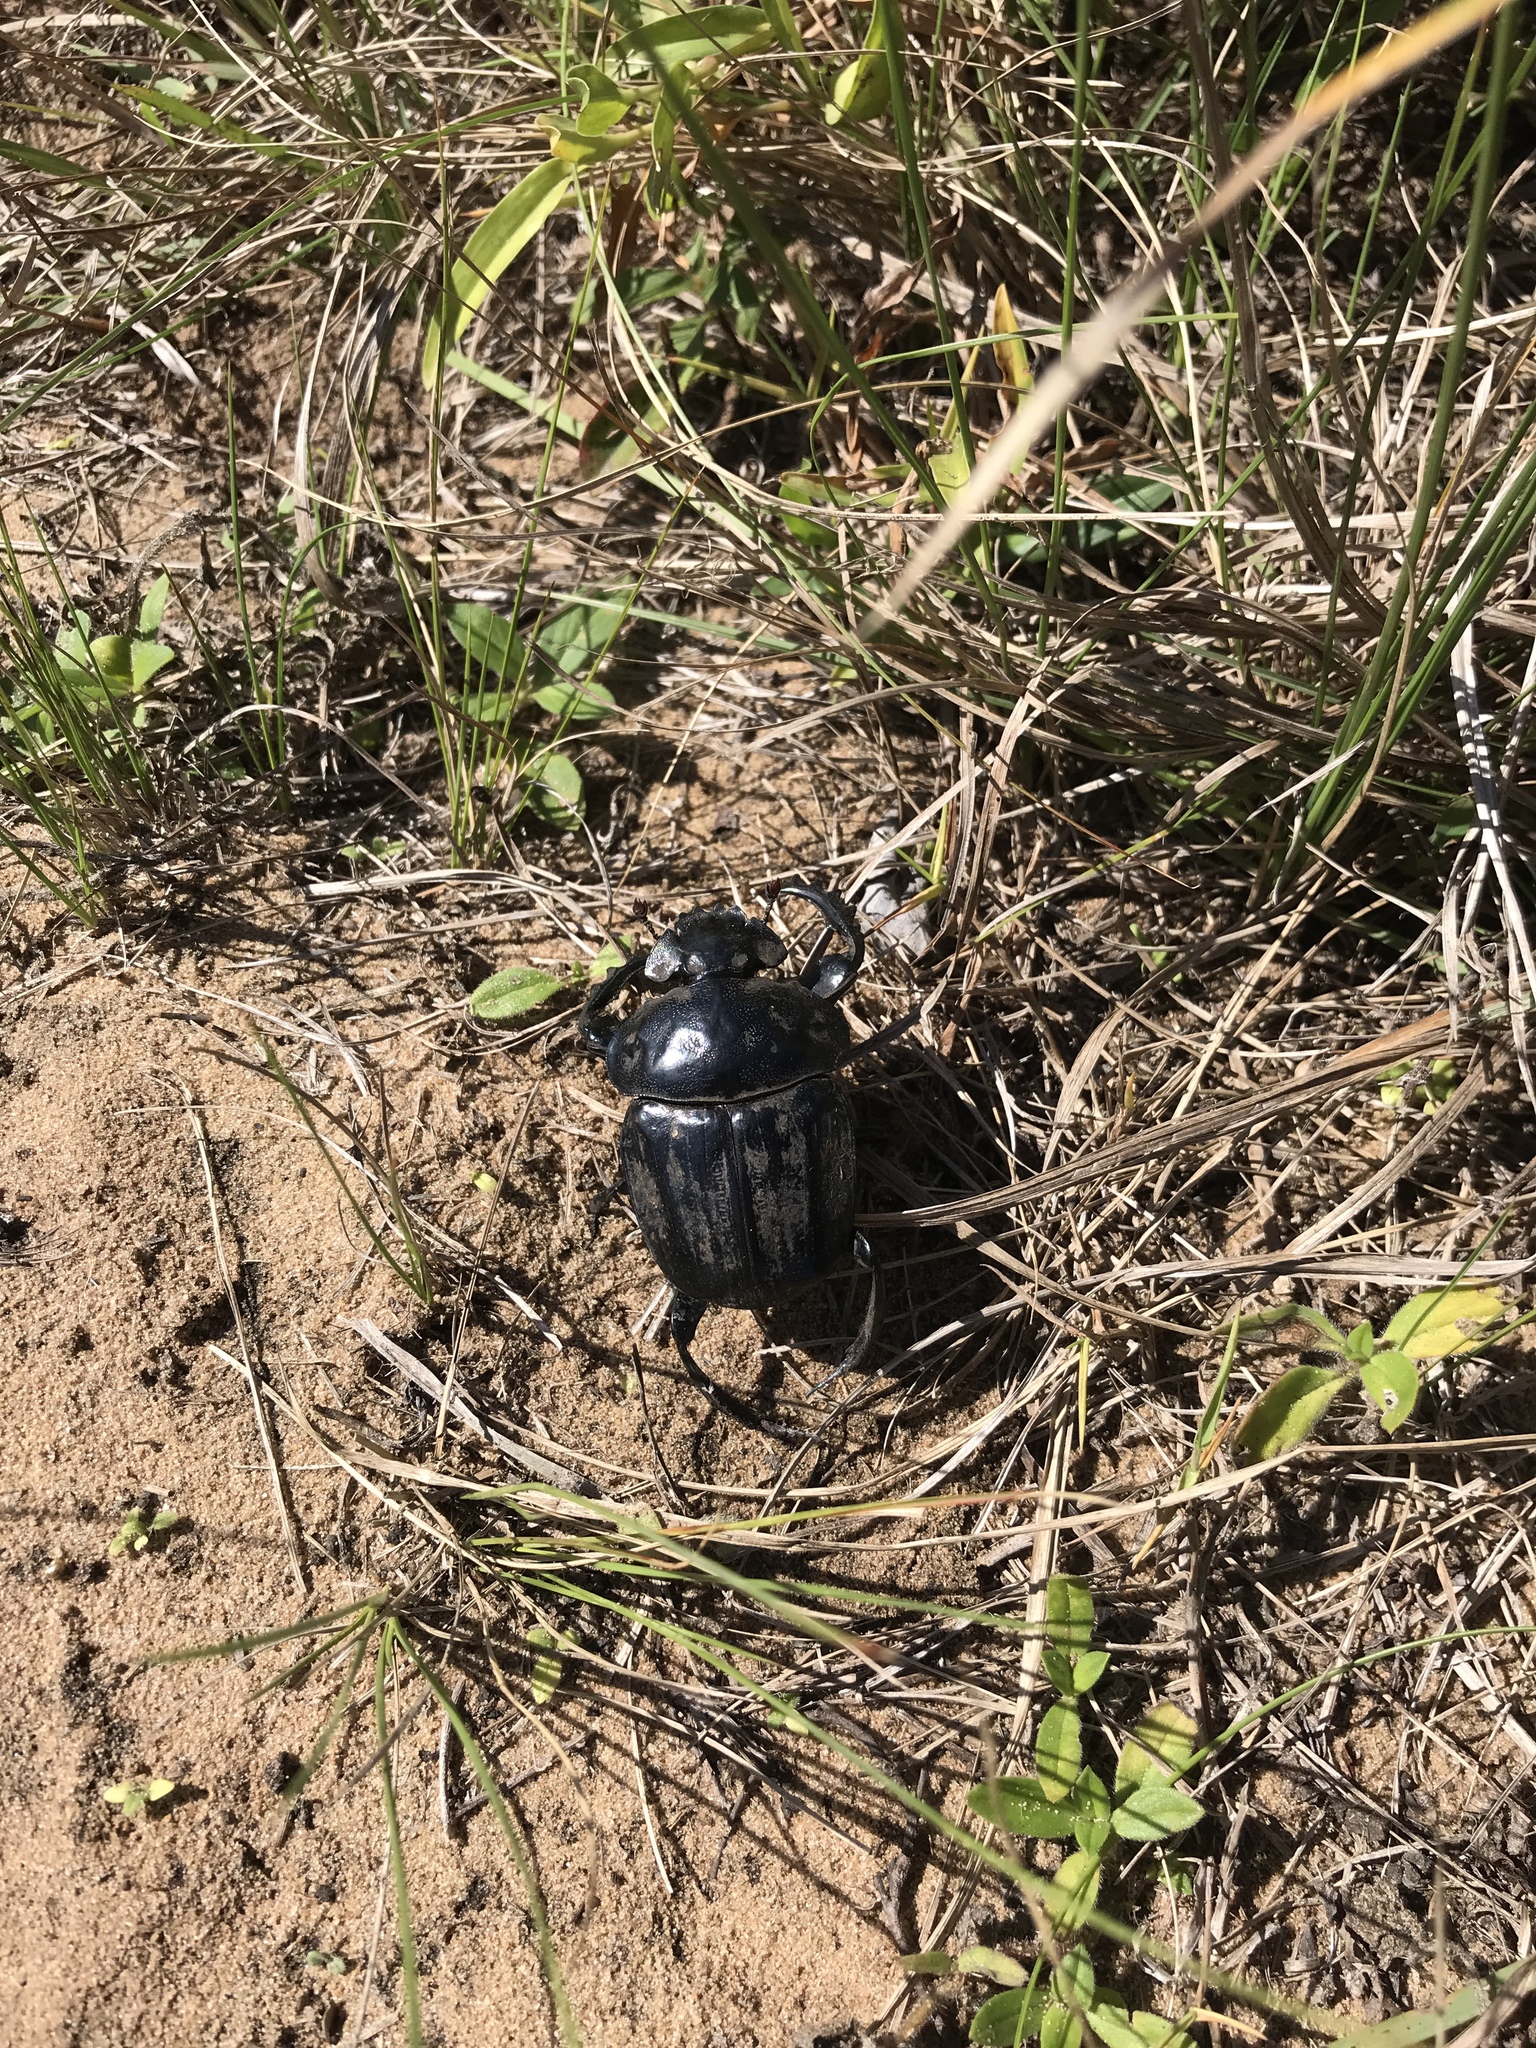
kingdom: Animalia
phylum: Arthropoda
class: Insecta
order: Coleoptera
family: Scarabaeidae
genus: Pachylomera
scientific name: Pachylomera femoralis
